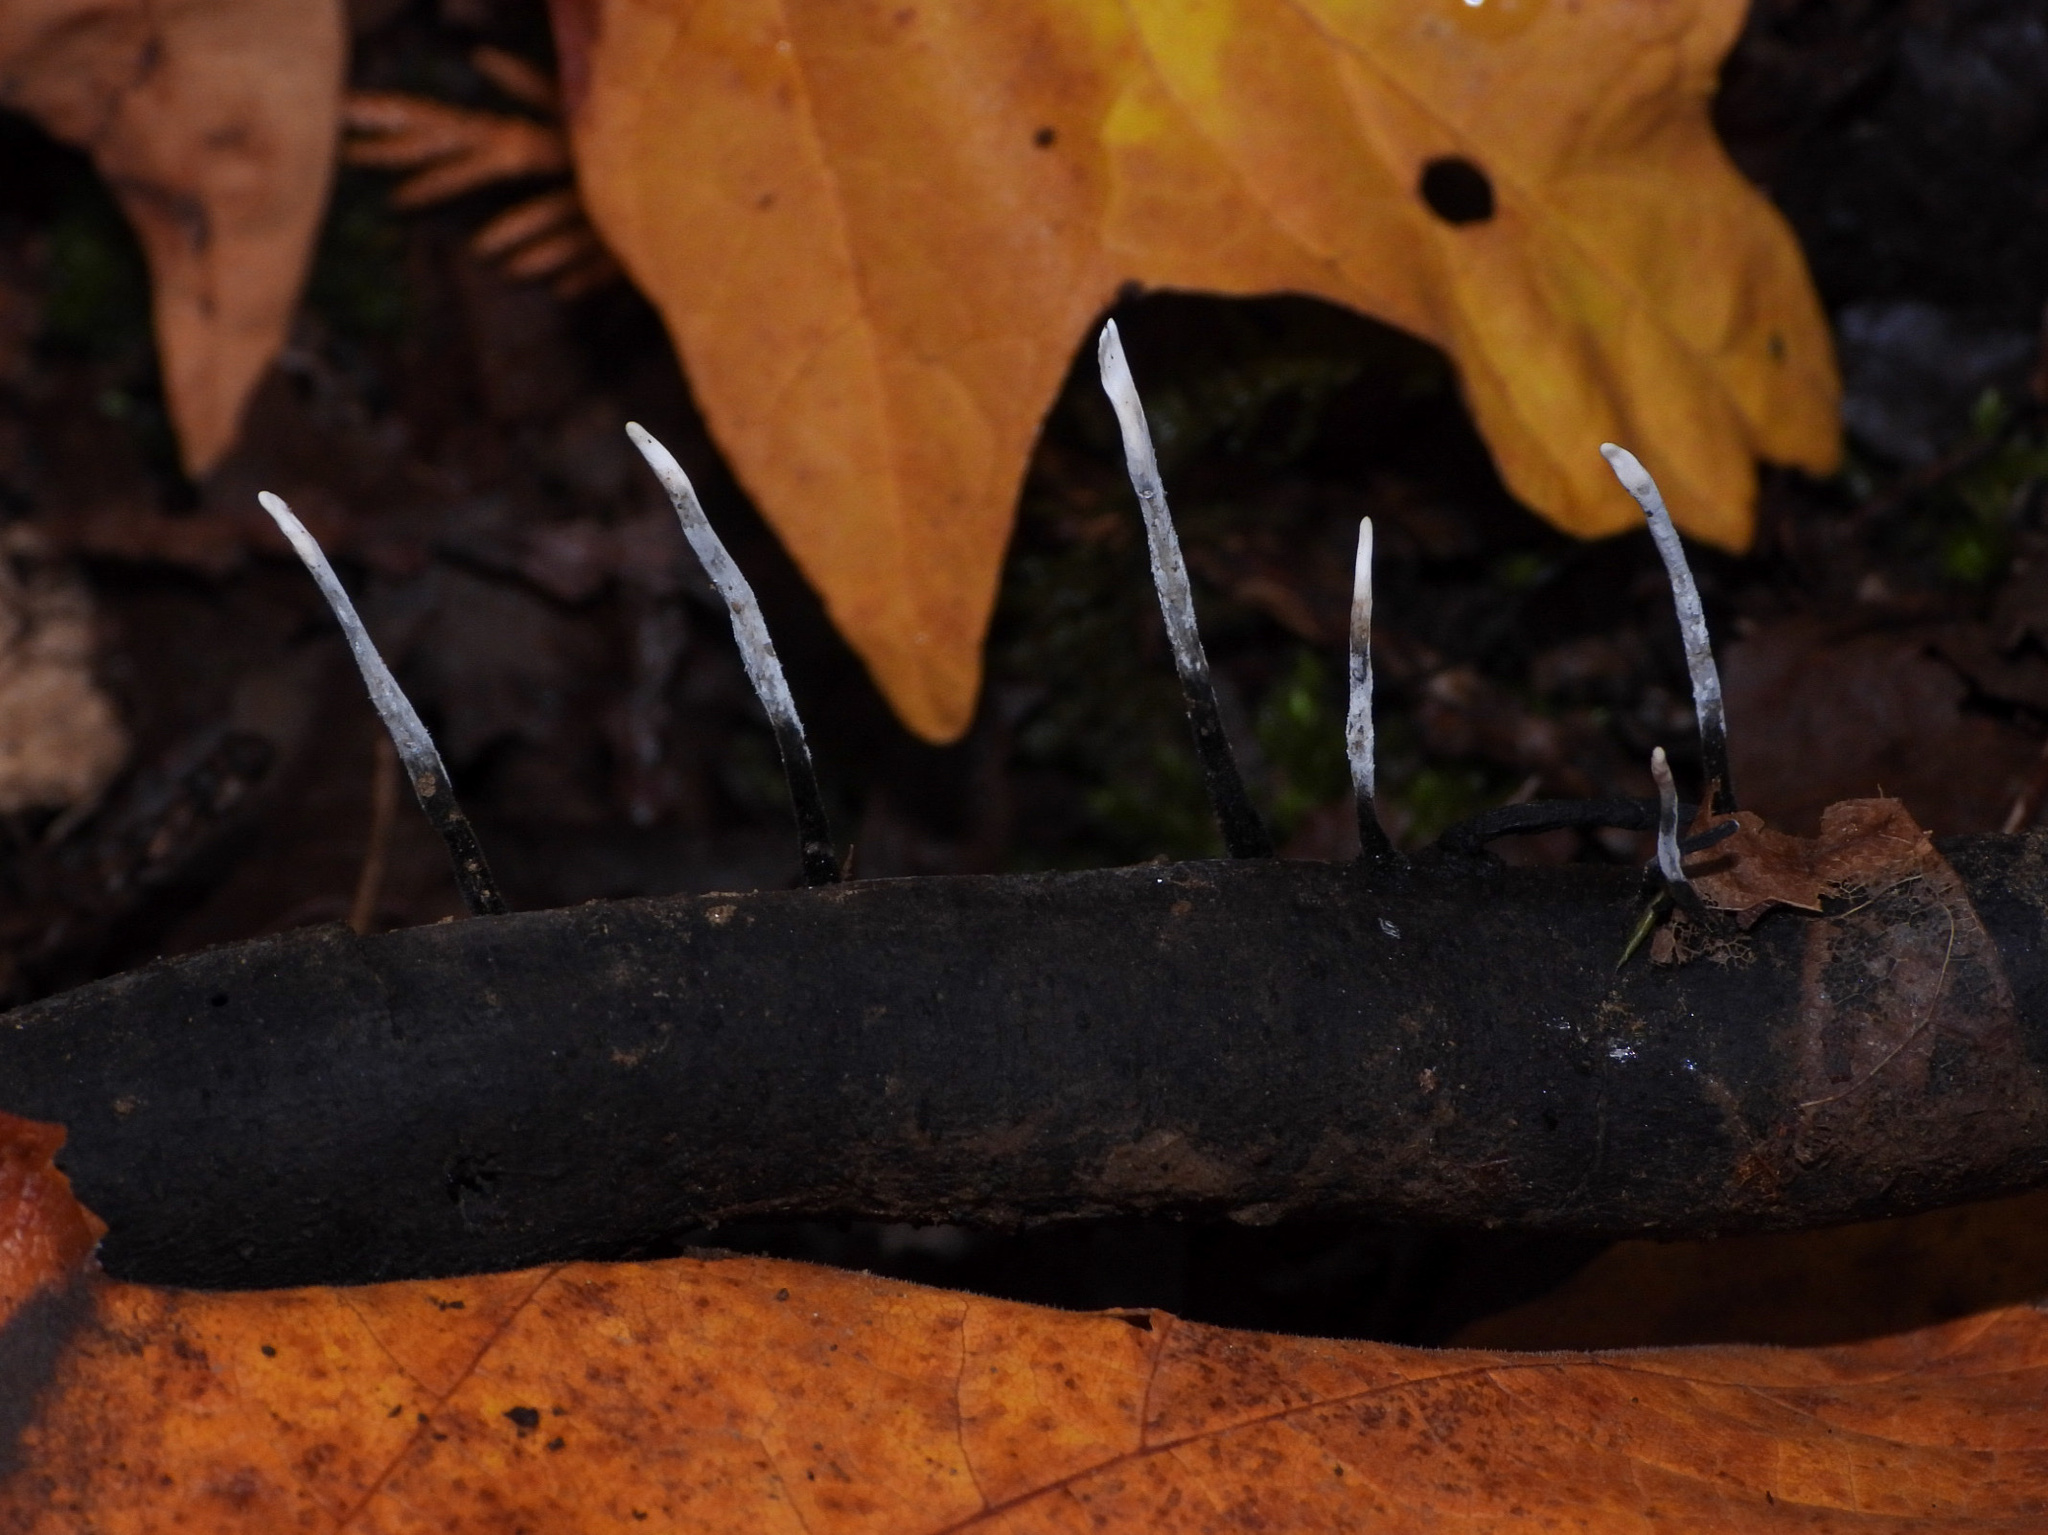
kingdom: Fungi
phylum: Ascomycota
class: Sordariomycetes
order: Xylariales
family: Xylariaceae
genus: Xylaria
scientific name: Xylaria hypoxylon
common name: Candle-snuff fungus
